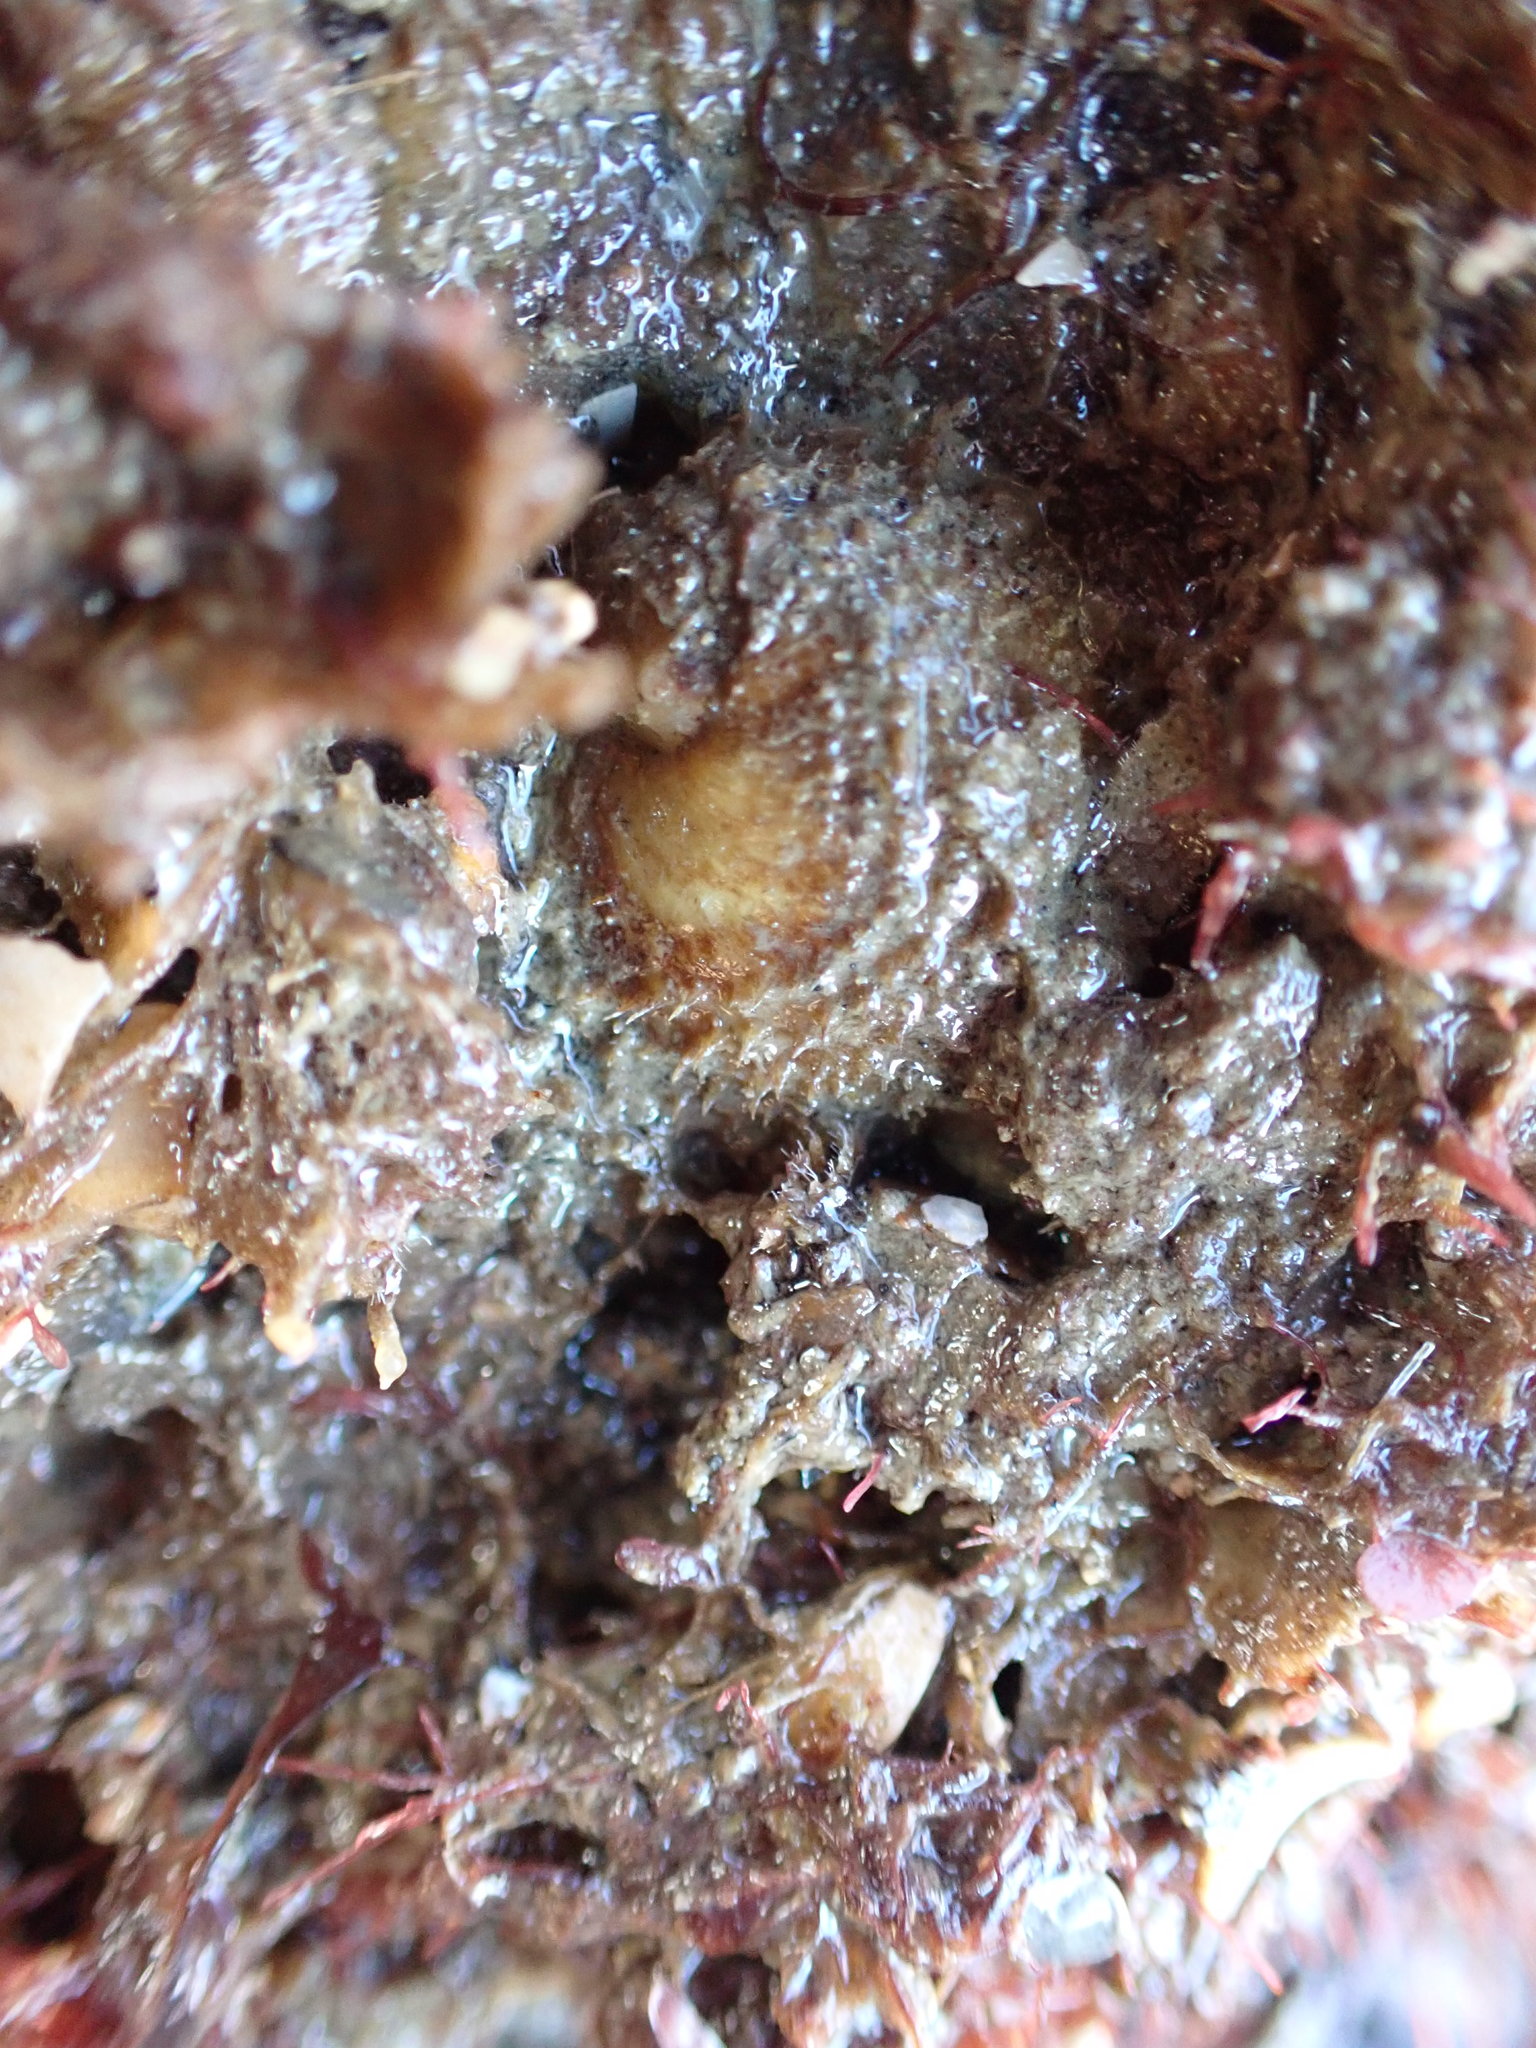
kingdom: Animalia
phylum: Mollusca
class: Gastropoda
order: Littorinimorpha
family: Calyptraeidae
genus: Sigapatella
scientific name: Sigapatella novaezelandiae
